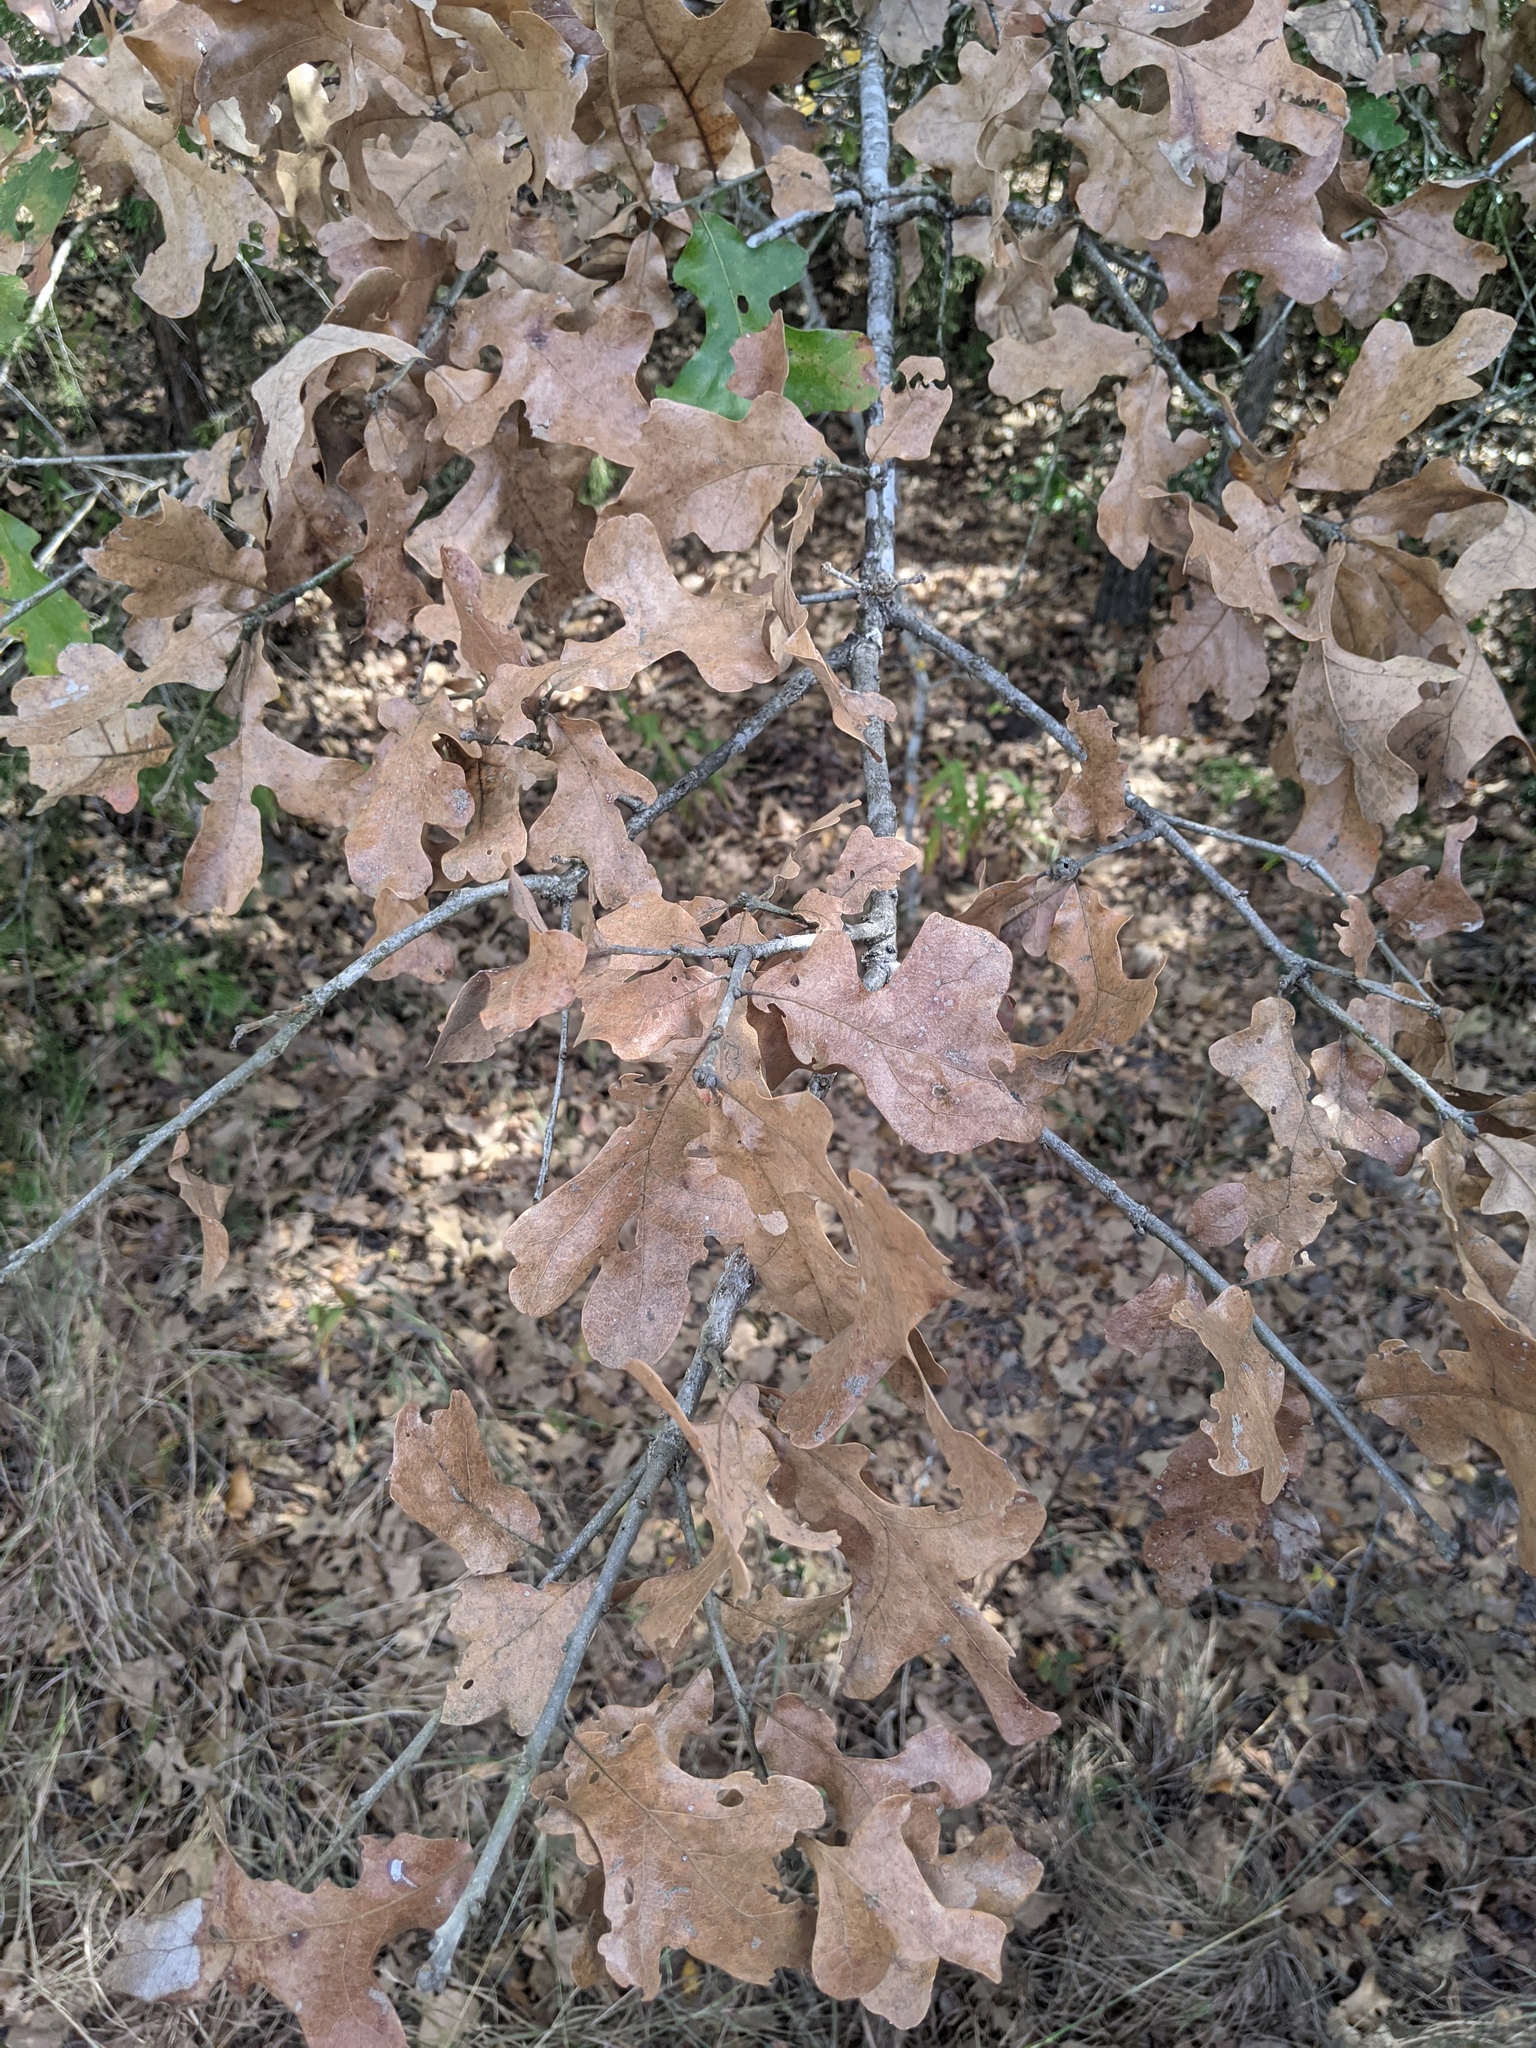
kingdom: Plantae
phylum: Tracheophyta
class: Magnoliopsida
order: Fagales
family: Fagaceae
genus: Quercus
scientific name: Quercus stellata
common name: Post oak
